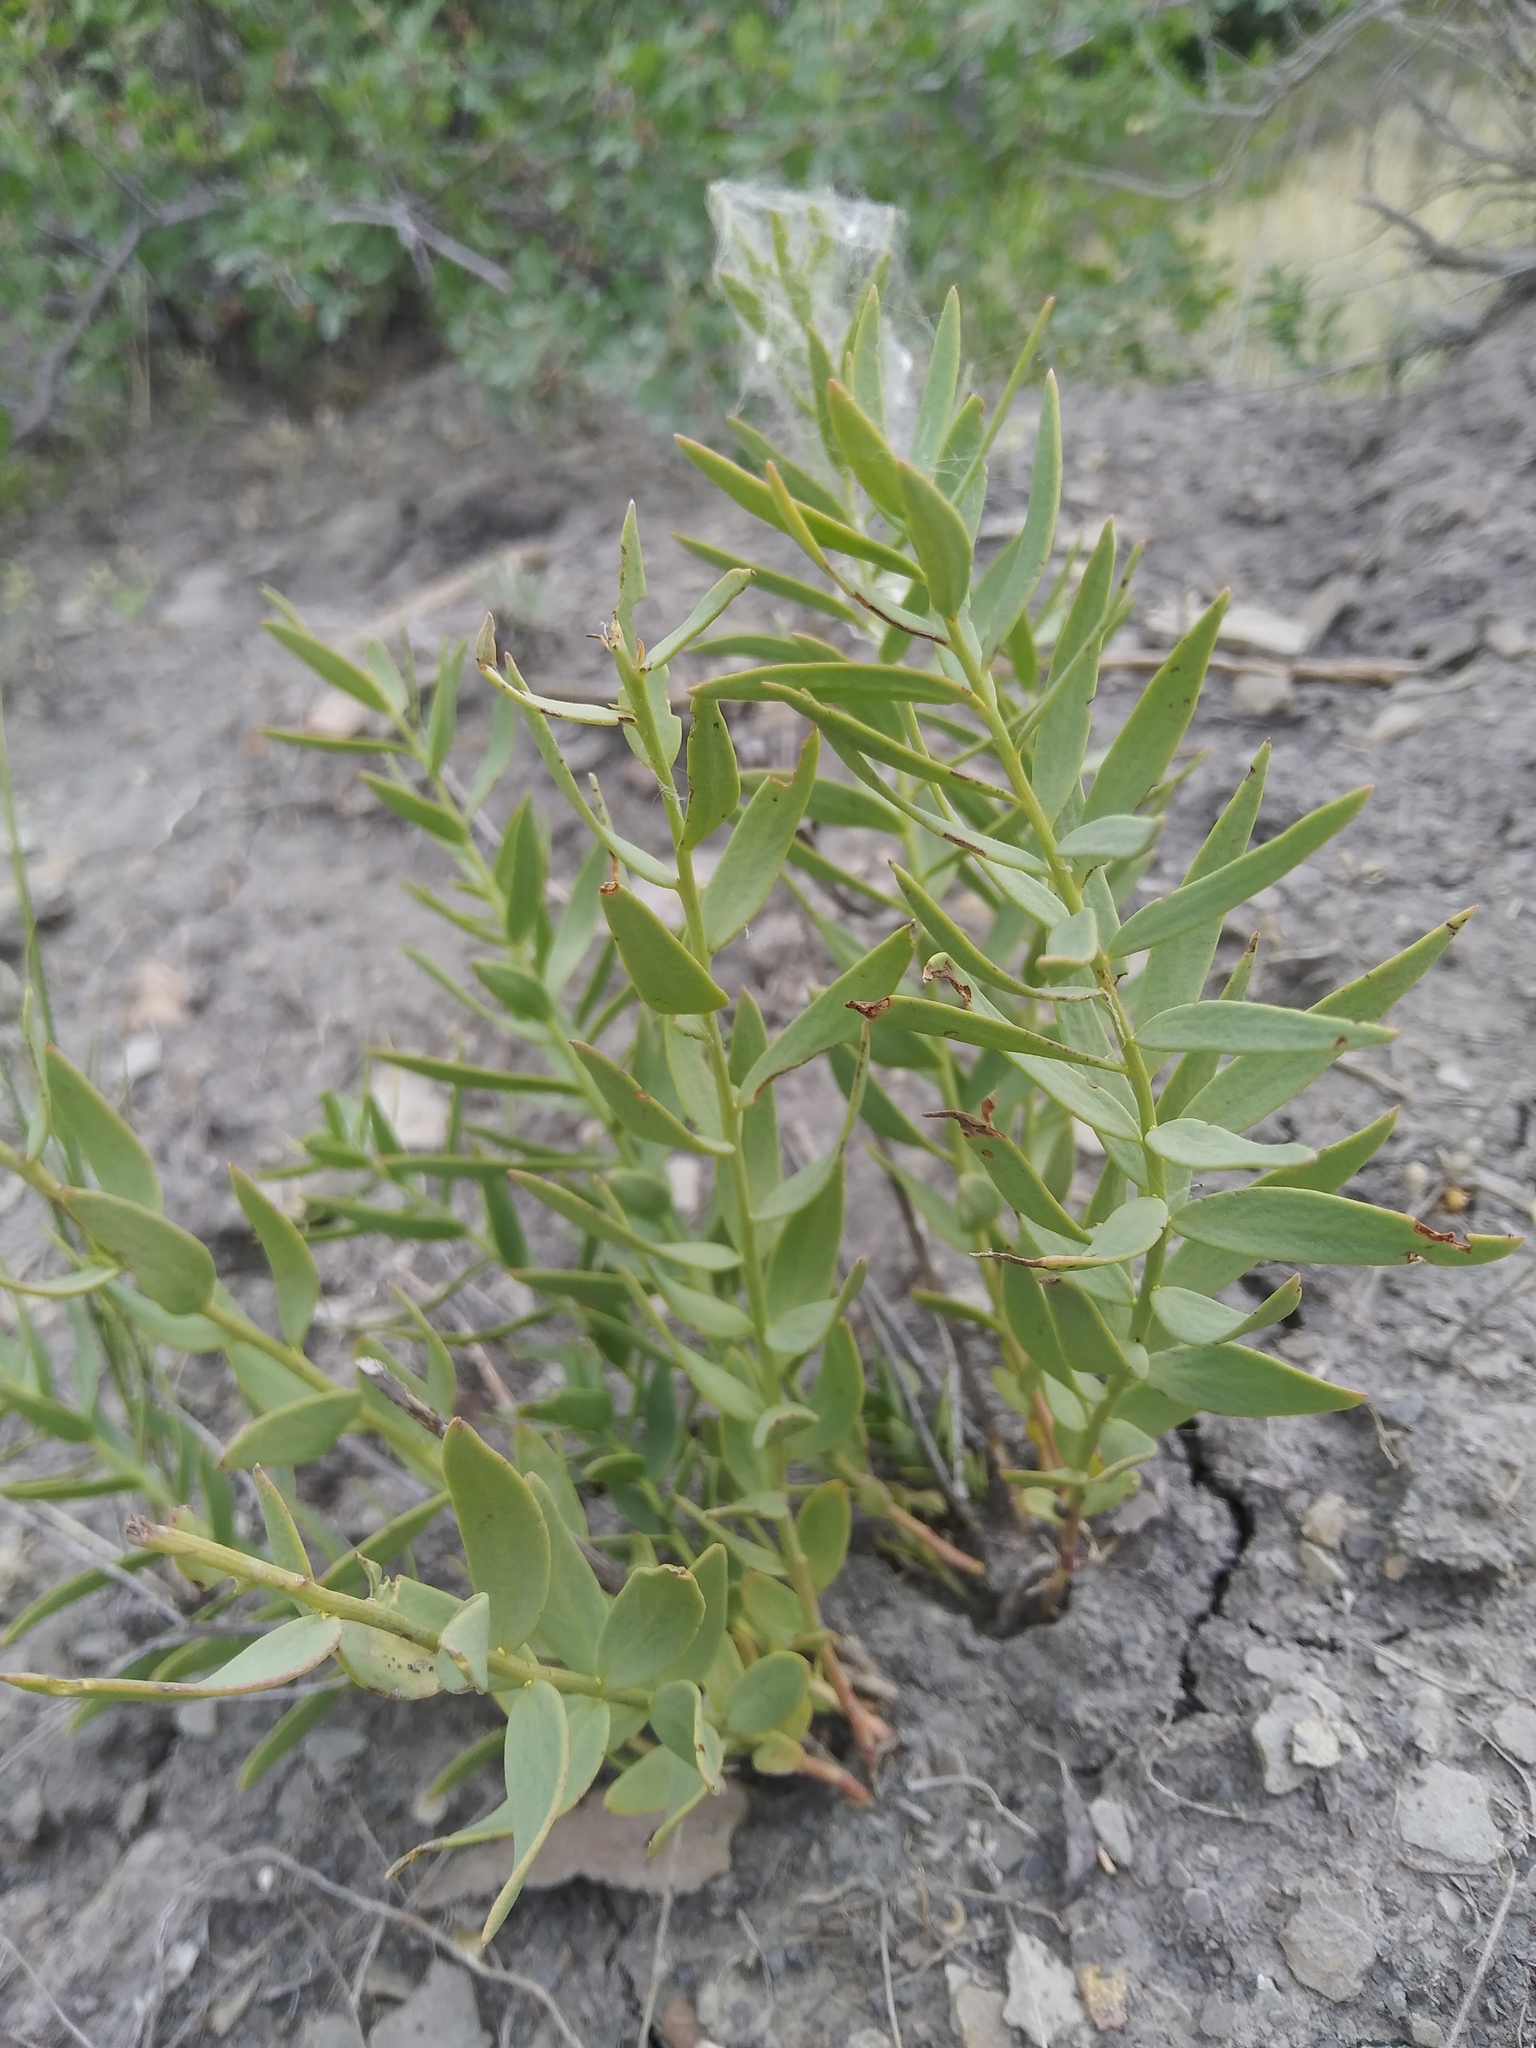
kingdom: Plantae
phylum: Tracheophyta
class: Magnoliopsida
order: Santalales
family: Comandraceae
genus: Comandra
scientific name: Comandra umbellata
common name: Bastard toadflax
